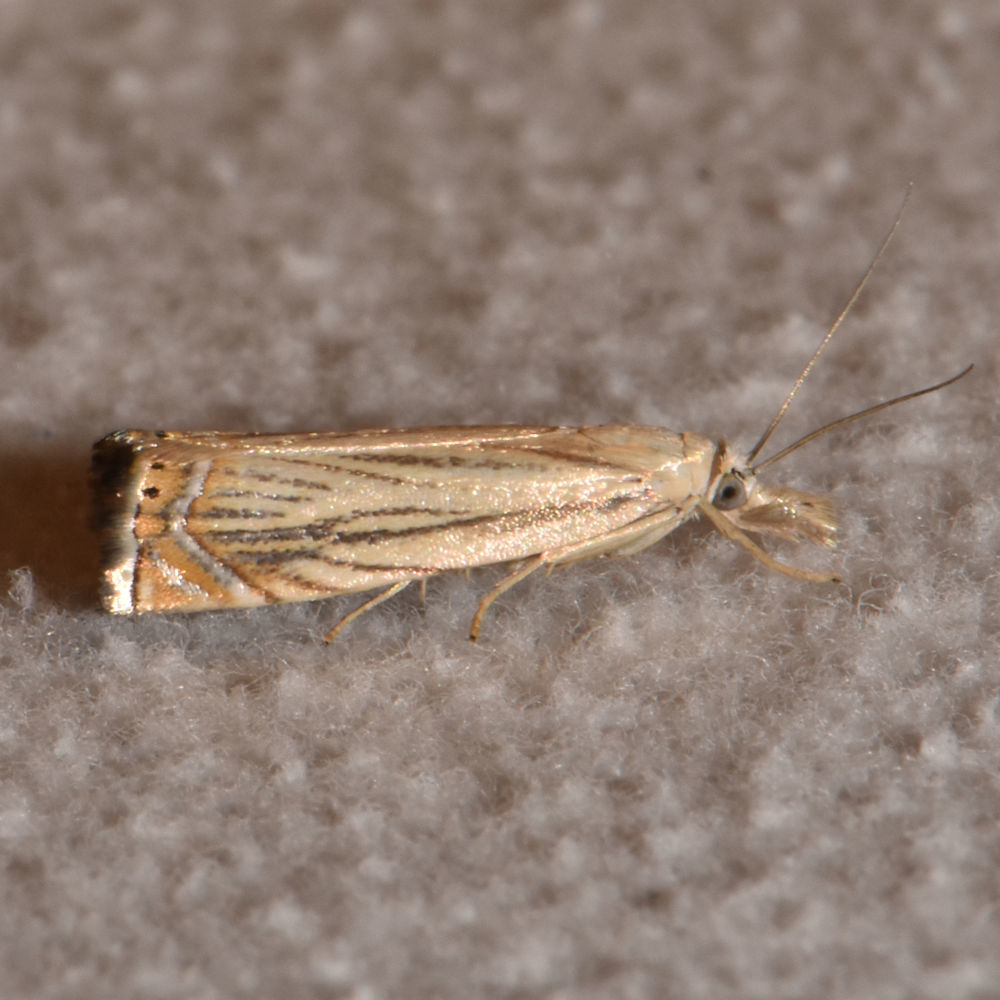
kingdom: Animalia
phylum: Arthropoda
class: Insecta
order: Lepidoptera
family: Crambidae
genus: Chrysoteuchia
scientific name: Chrysoteuchia topiarius
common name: Topiary grass-veneer
